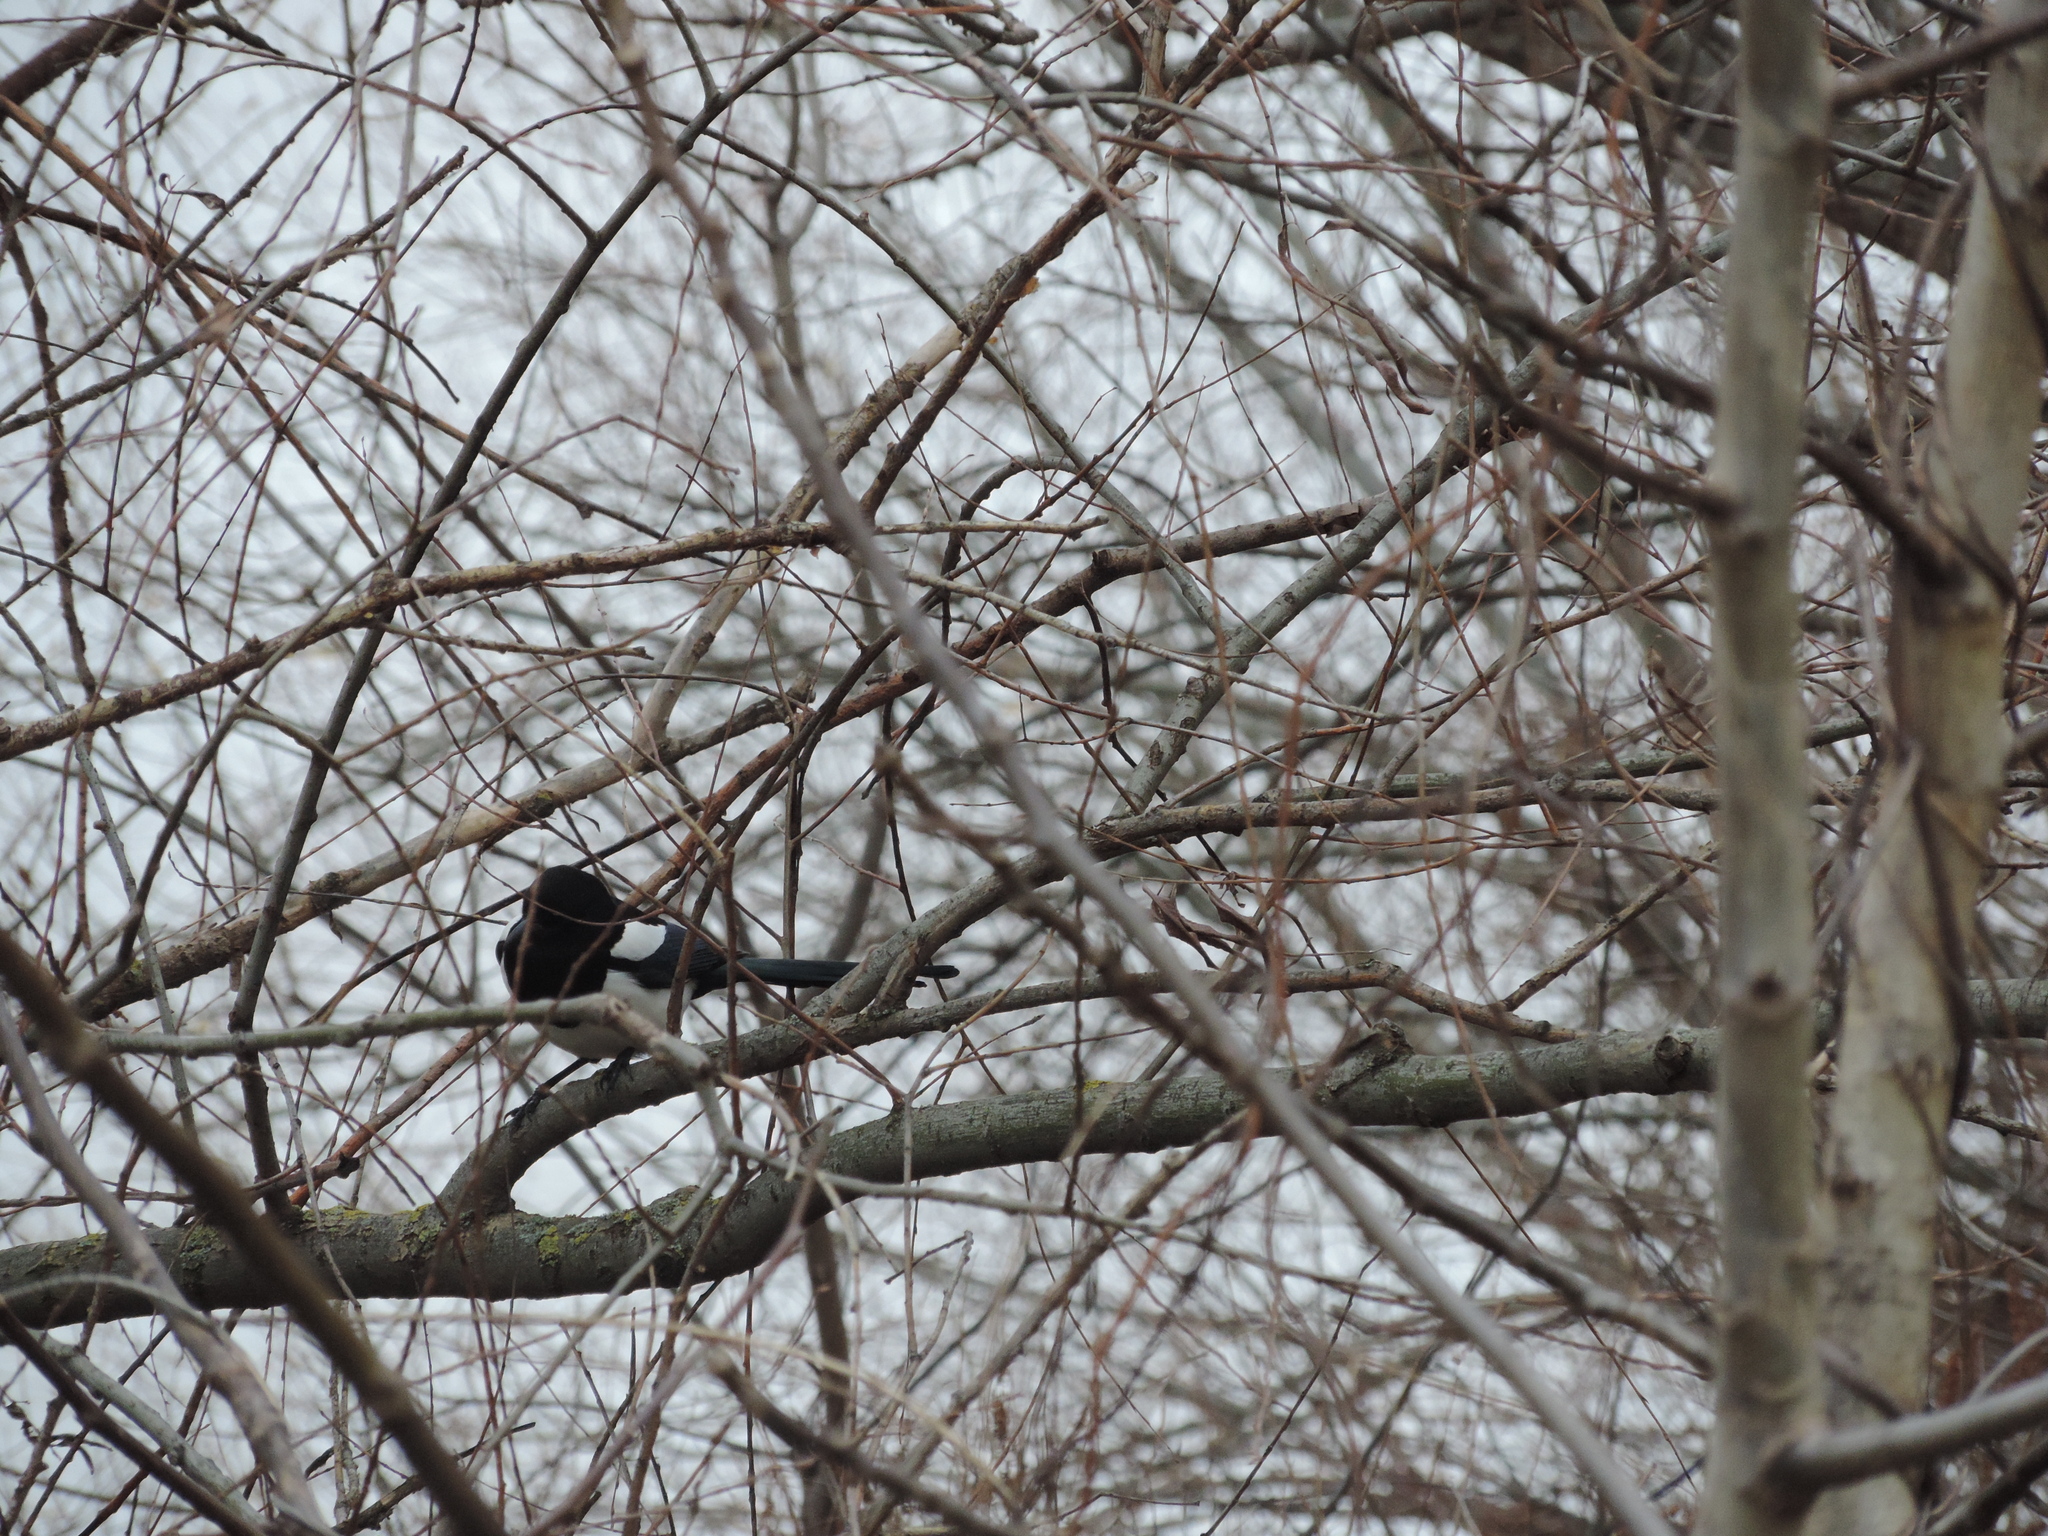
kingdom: Animalia
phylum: Chordata
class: Aves
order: Passeriformes
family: Corvidae
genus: Pica
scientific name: Pica pica
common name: Eurasian magpie
